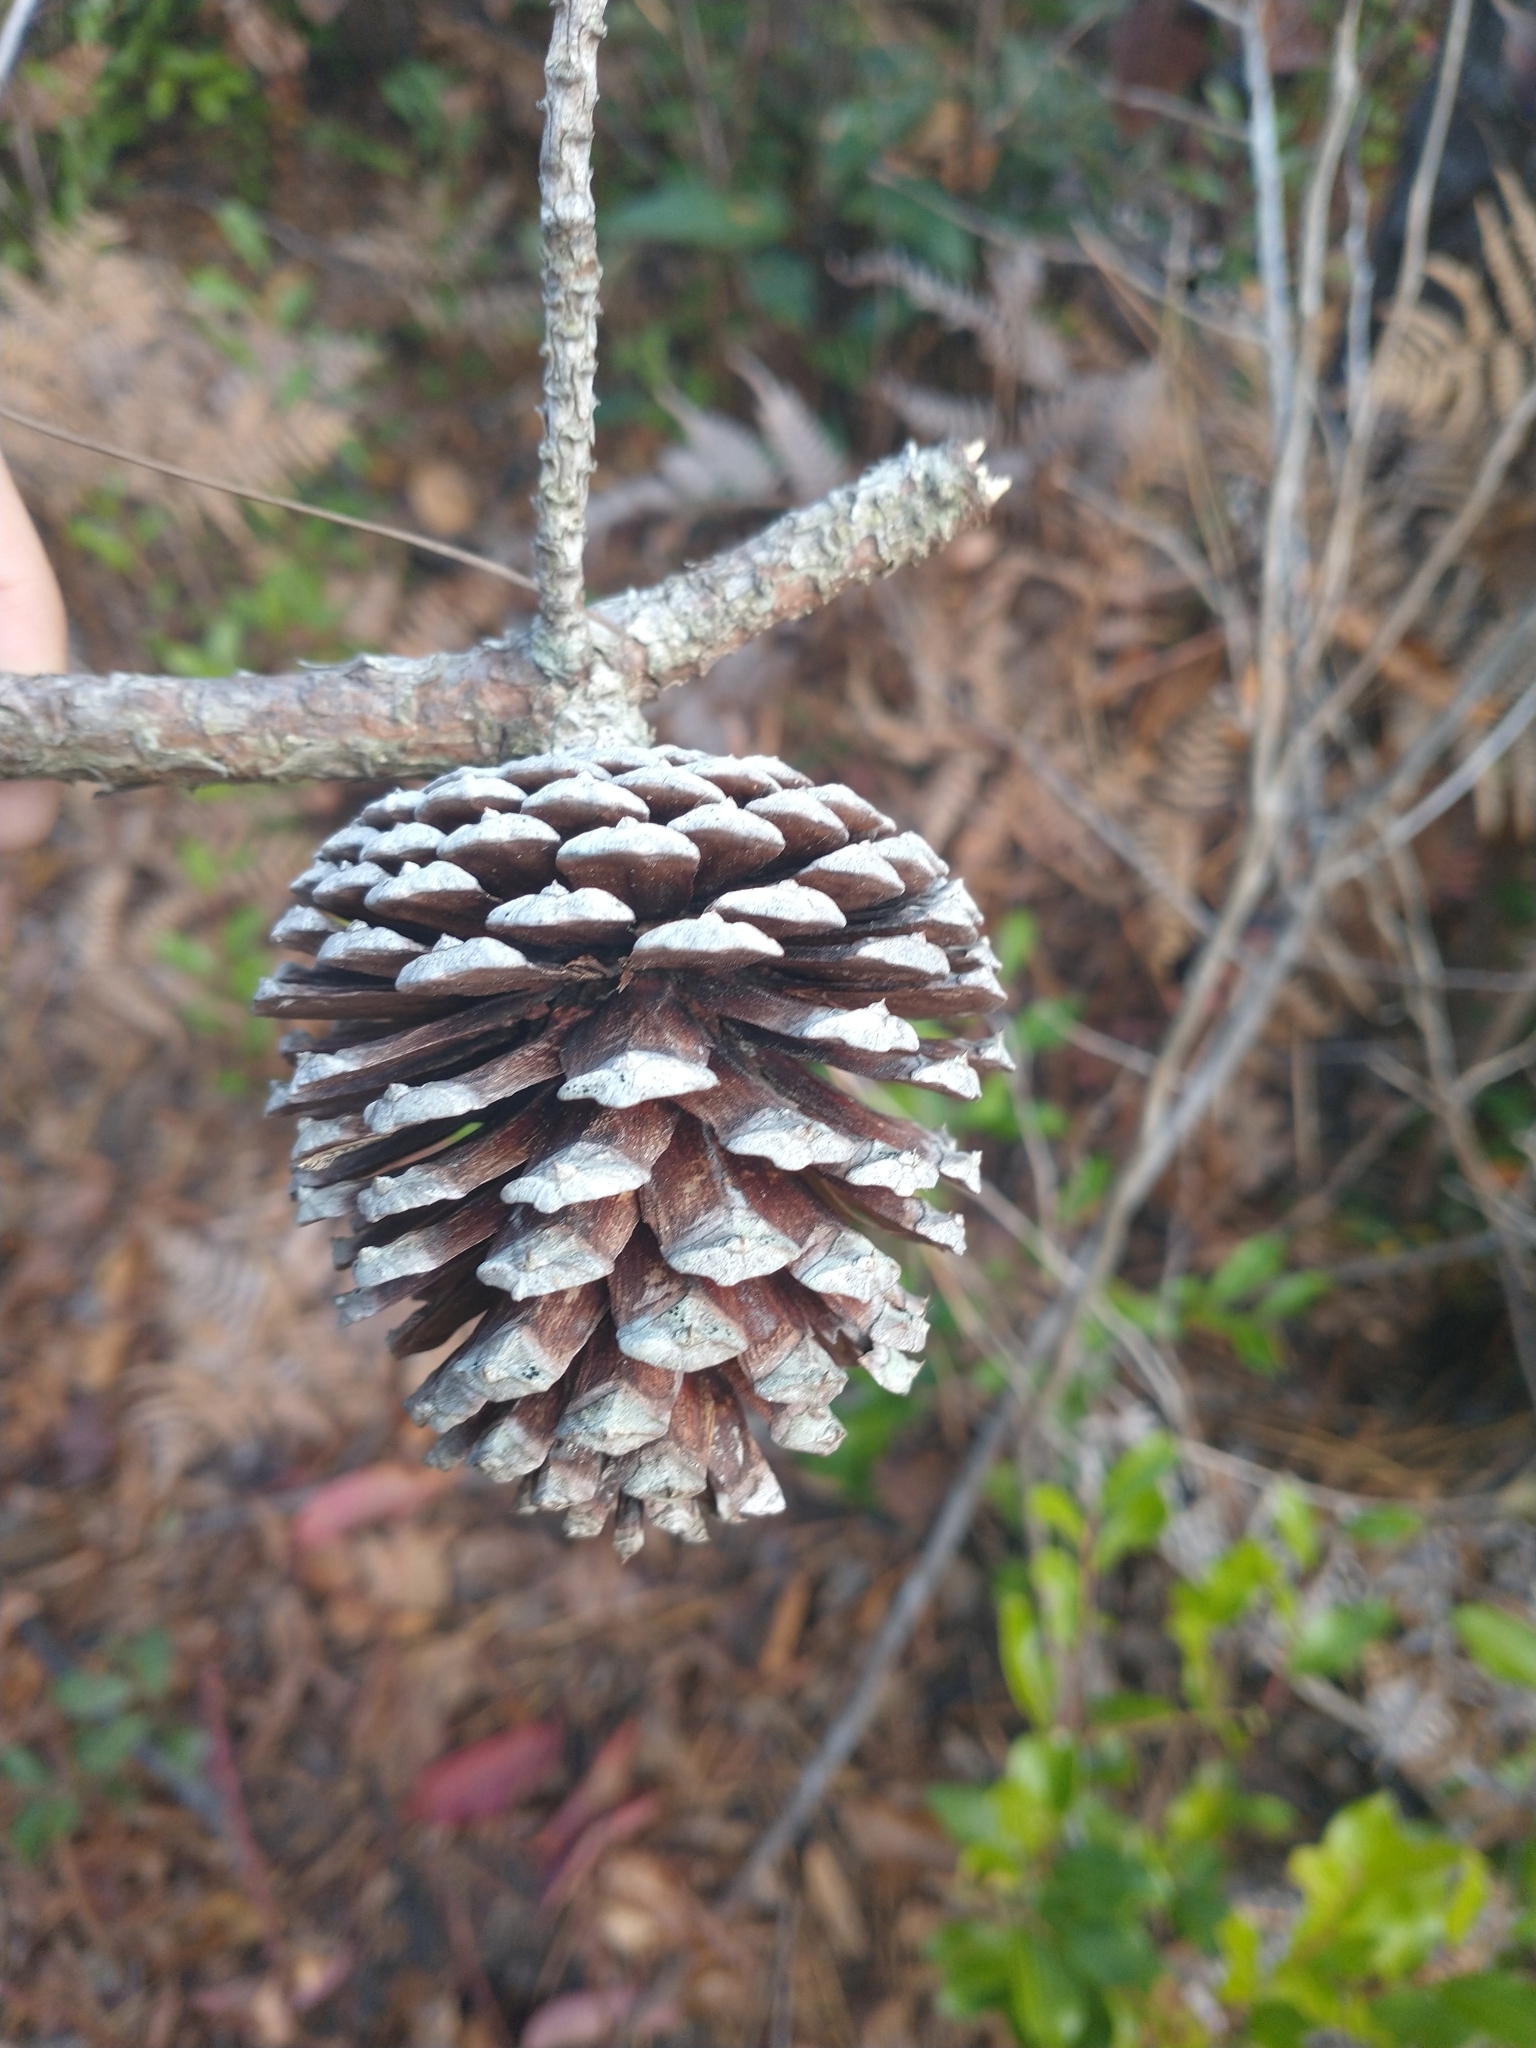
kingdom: Plantae
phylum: Tracheophyta
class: Pinopsida
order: Pinales
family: Pinaceae
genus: Pinus
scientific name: Pinus serotina
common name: Marsh pine
